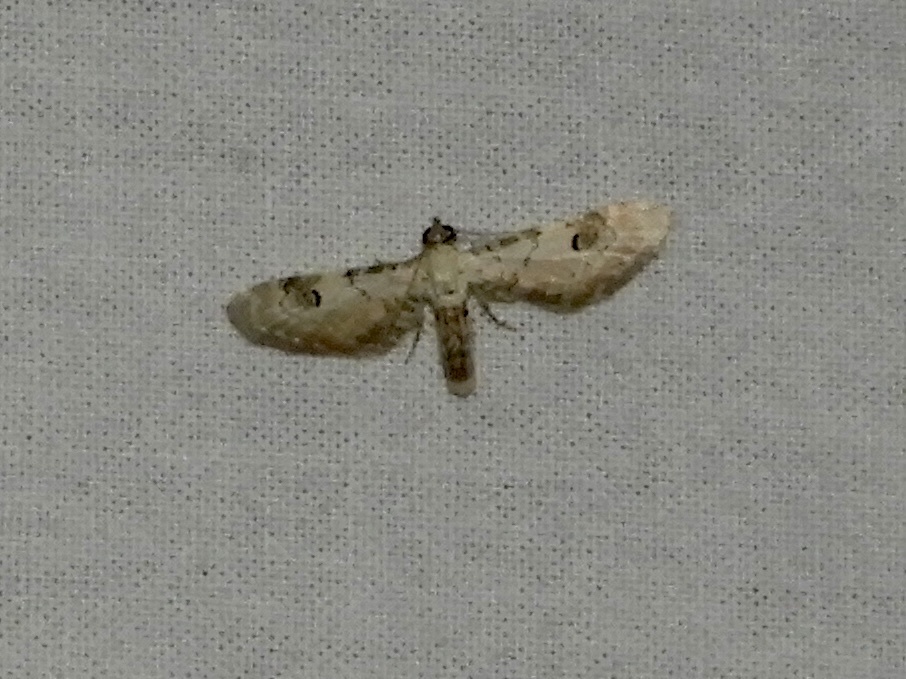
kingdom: Animalia
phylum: Arthropoda
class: Insecta
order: Lepidoptera
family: Geometridae
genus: Eupithecia
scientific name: Eupithecia centaureata
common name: Lime-speck pug
